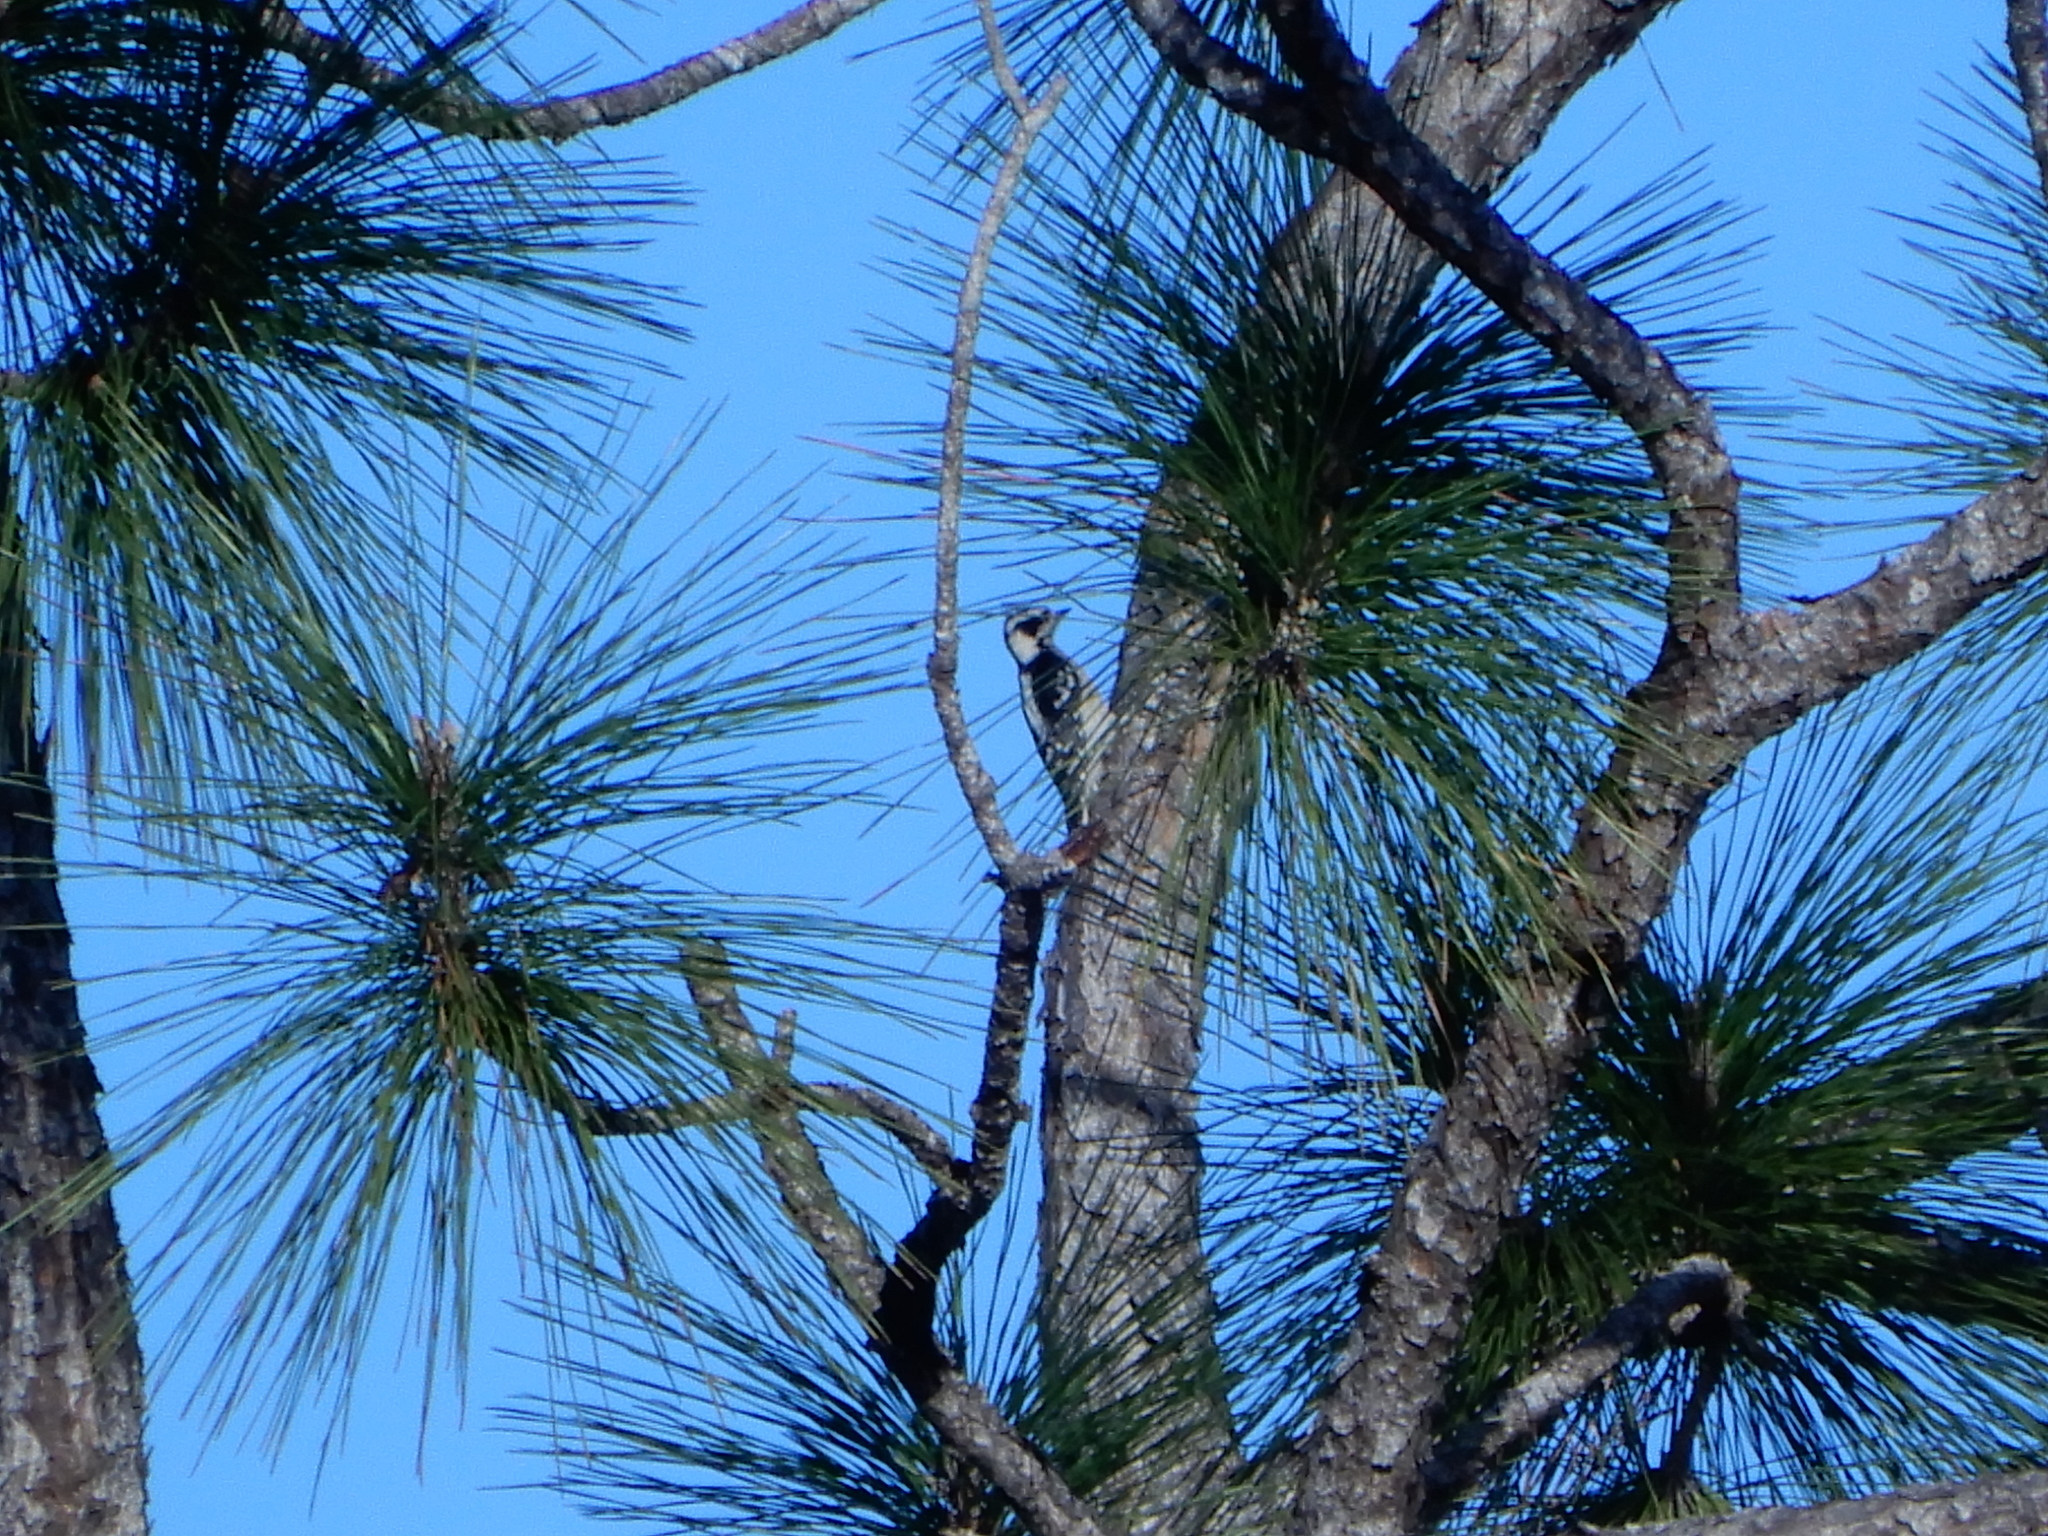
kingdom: Animalia
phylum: Chordata
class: Aves
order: Piciformes
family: Picidae
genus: Dryobates
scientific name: Dryobates pubescens
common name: Downy woodpecker
